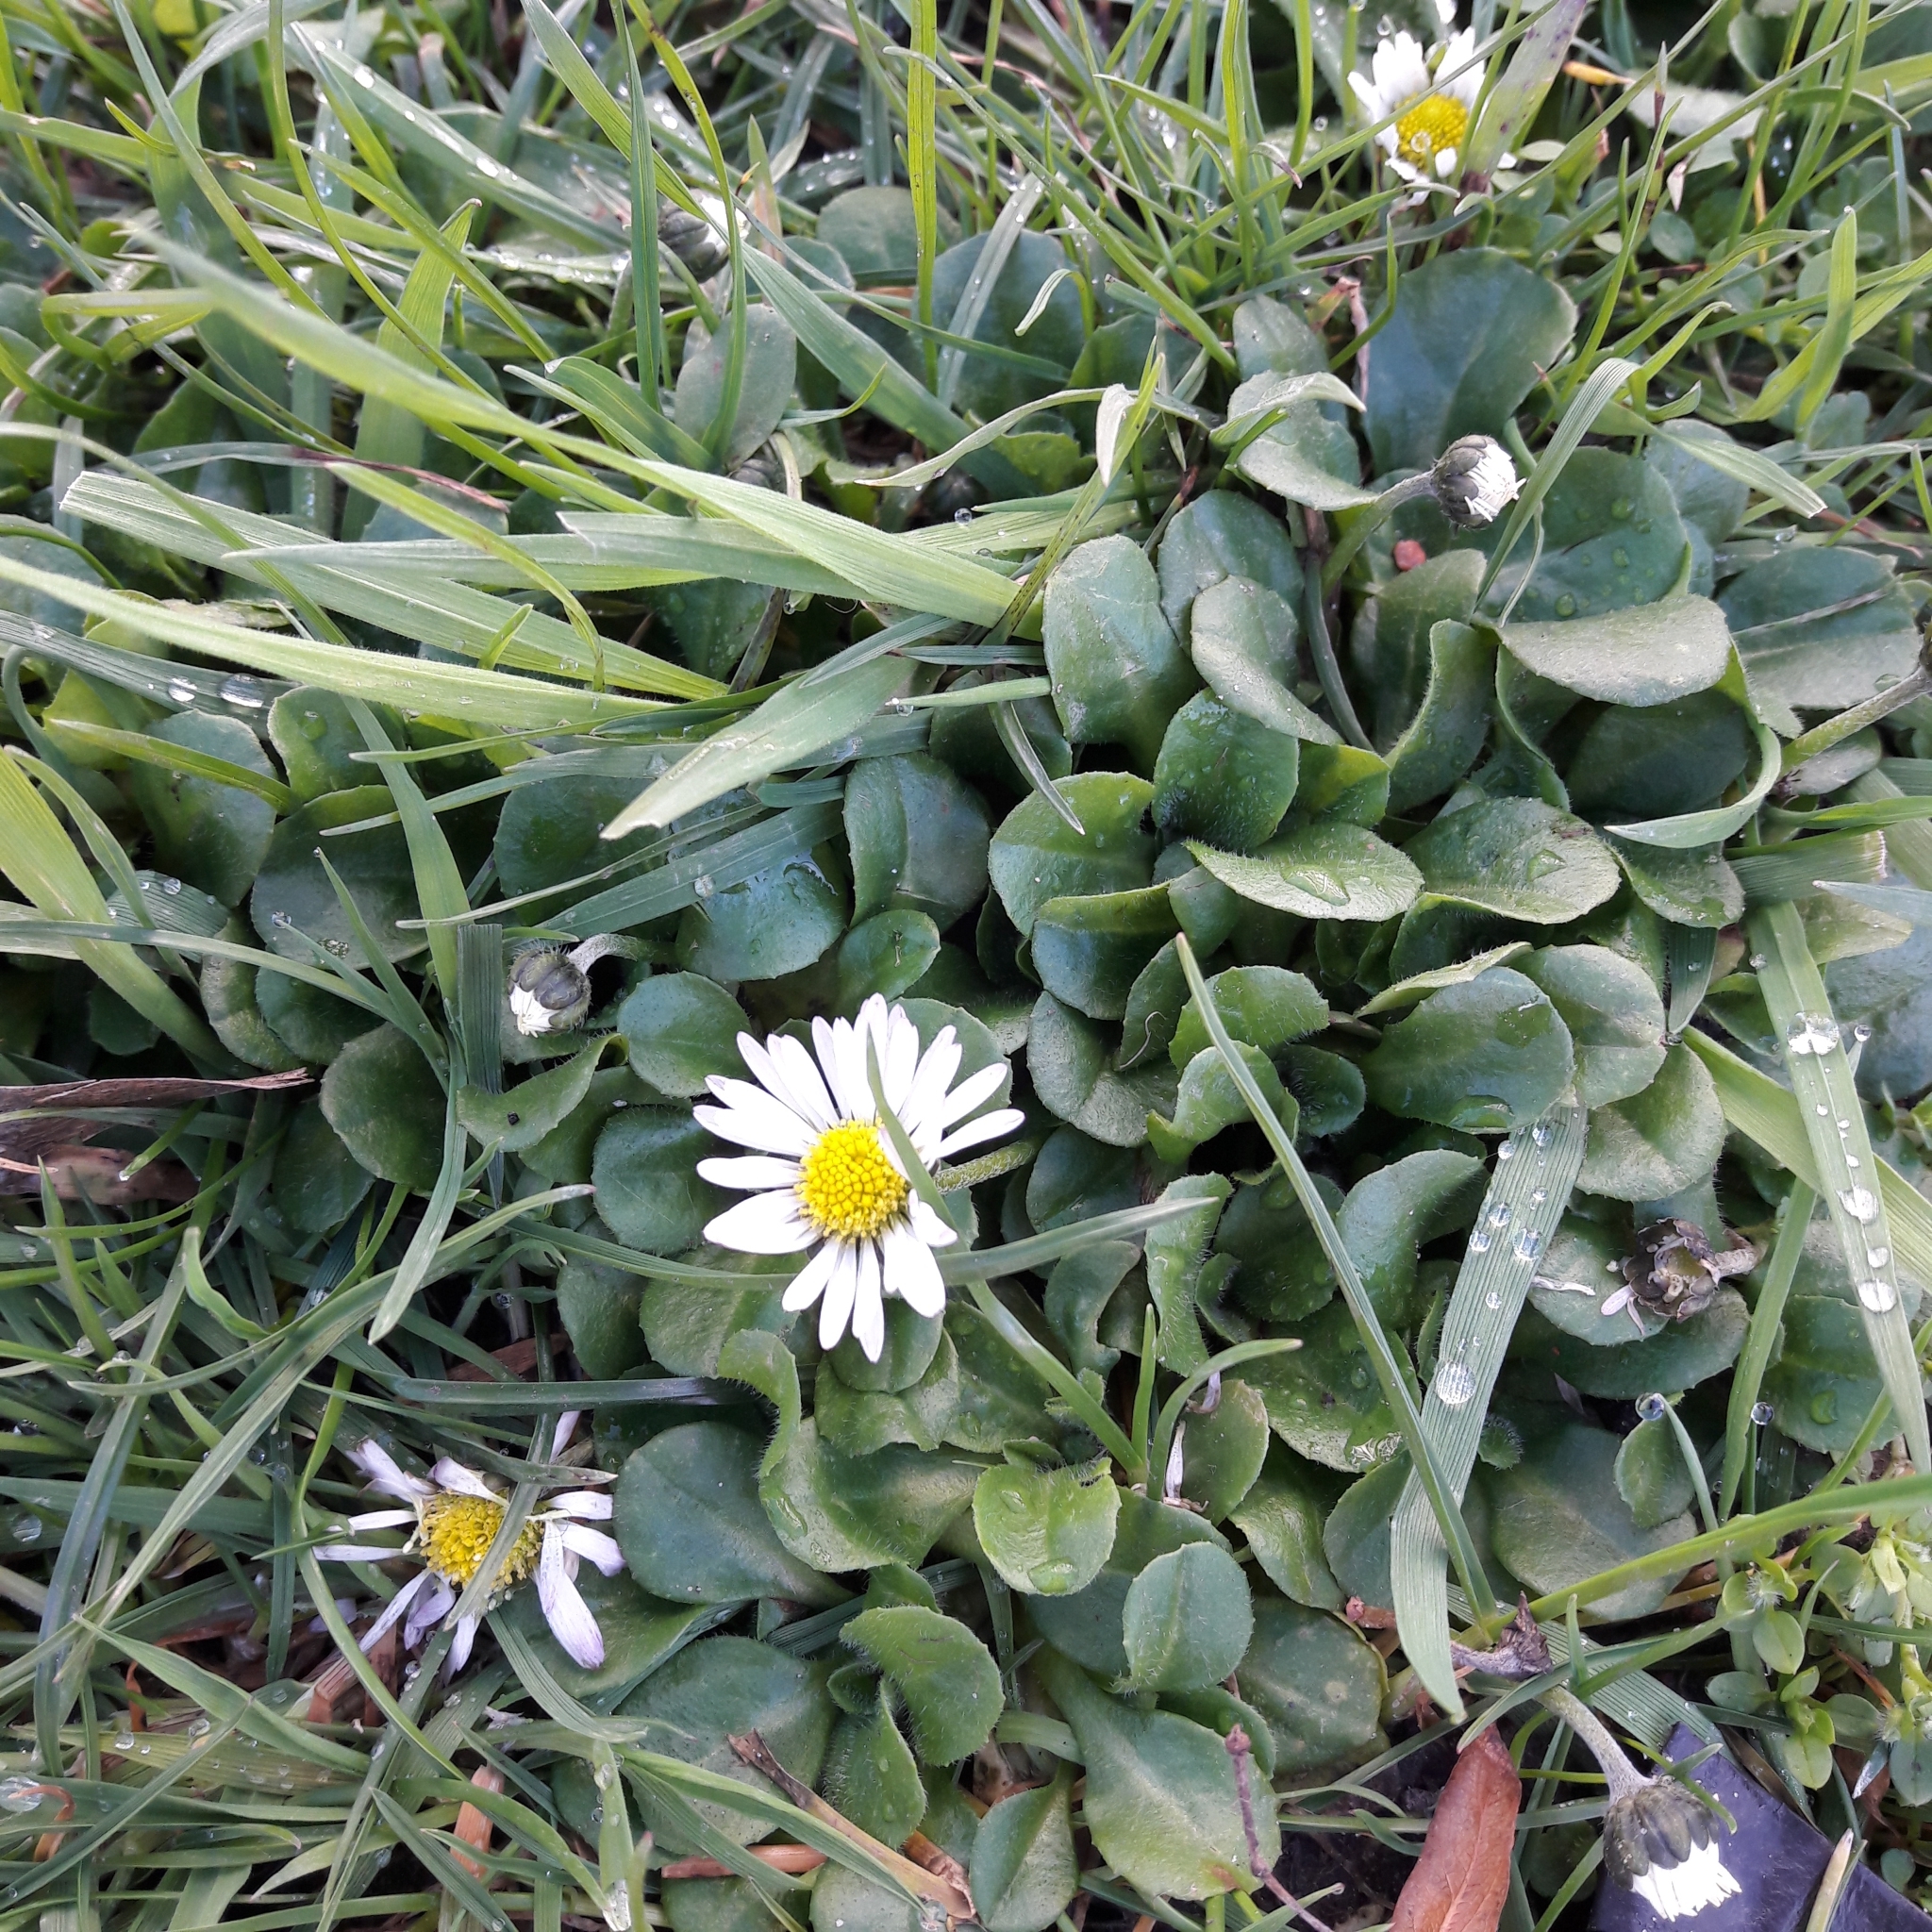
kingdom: Plantae
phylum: Tracheophyta
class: Magnoliopsida
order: Asterales
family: Asteraceae
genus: Bellis
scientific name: Bellis perennis
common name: Lawndaisy
